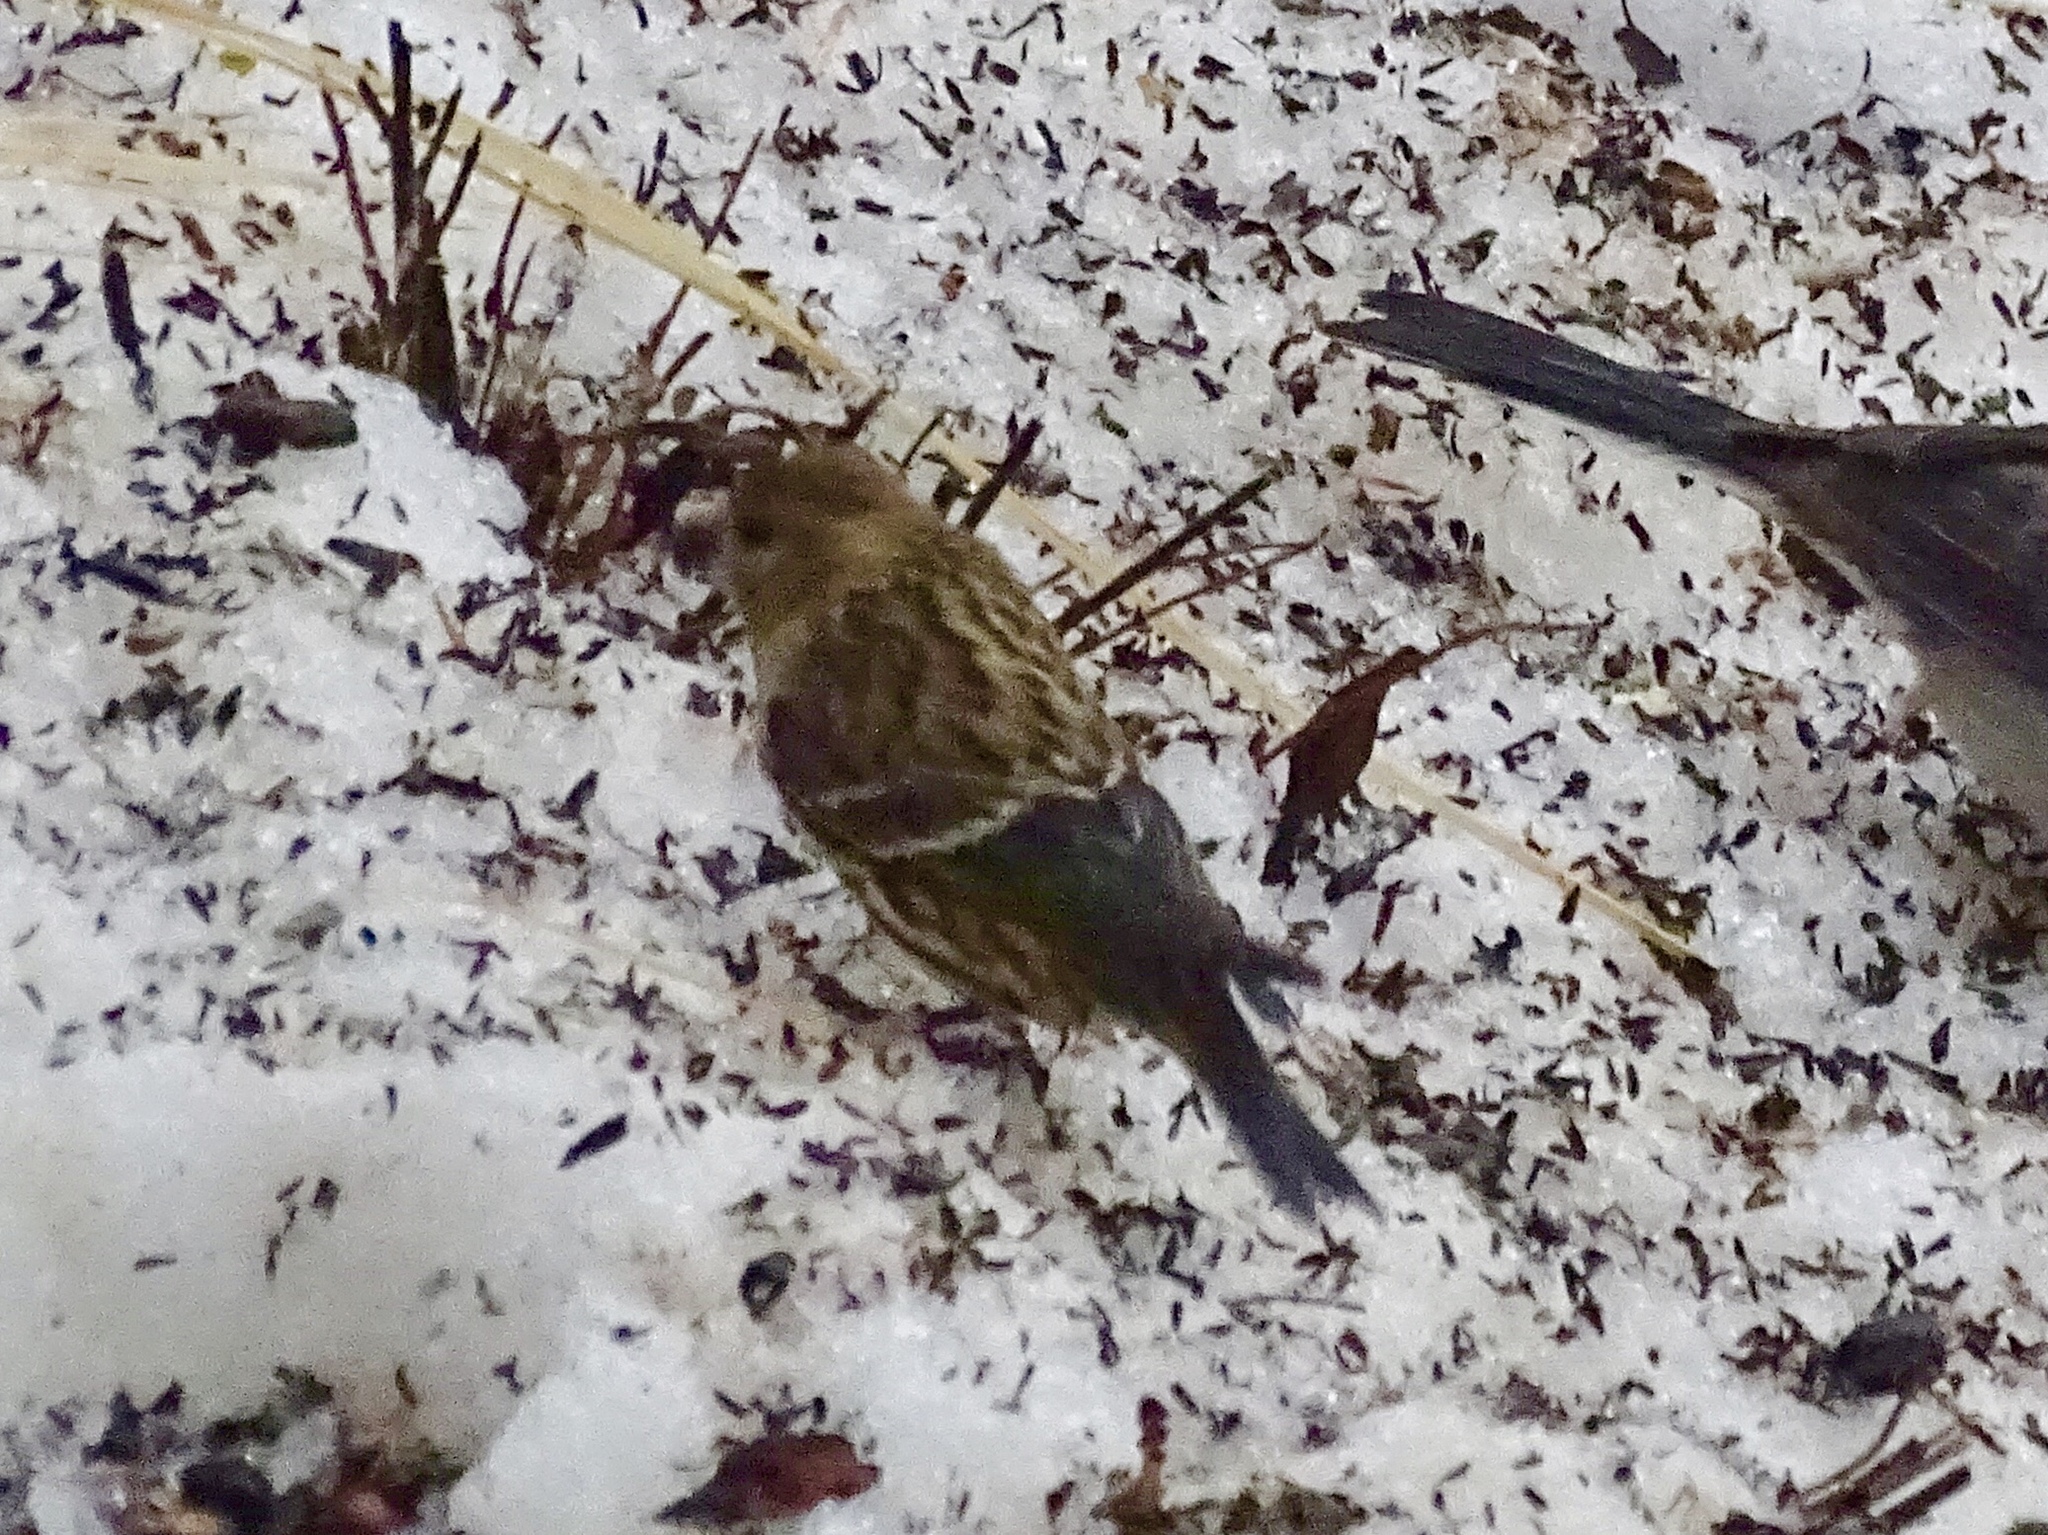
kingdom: Animalia
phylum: Chordata
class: Aves
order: Passeriformes
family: Fringillidae
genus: Spinus
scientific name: Spinus pinus
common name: Pine siskin
